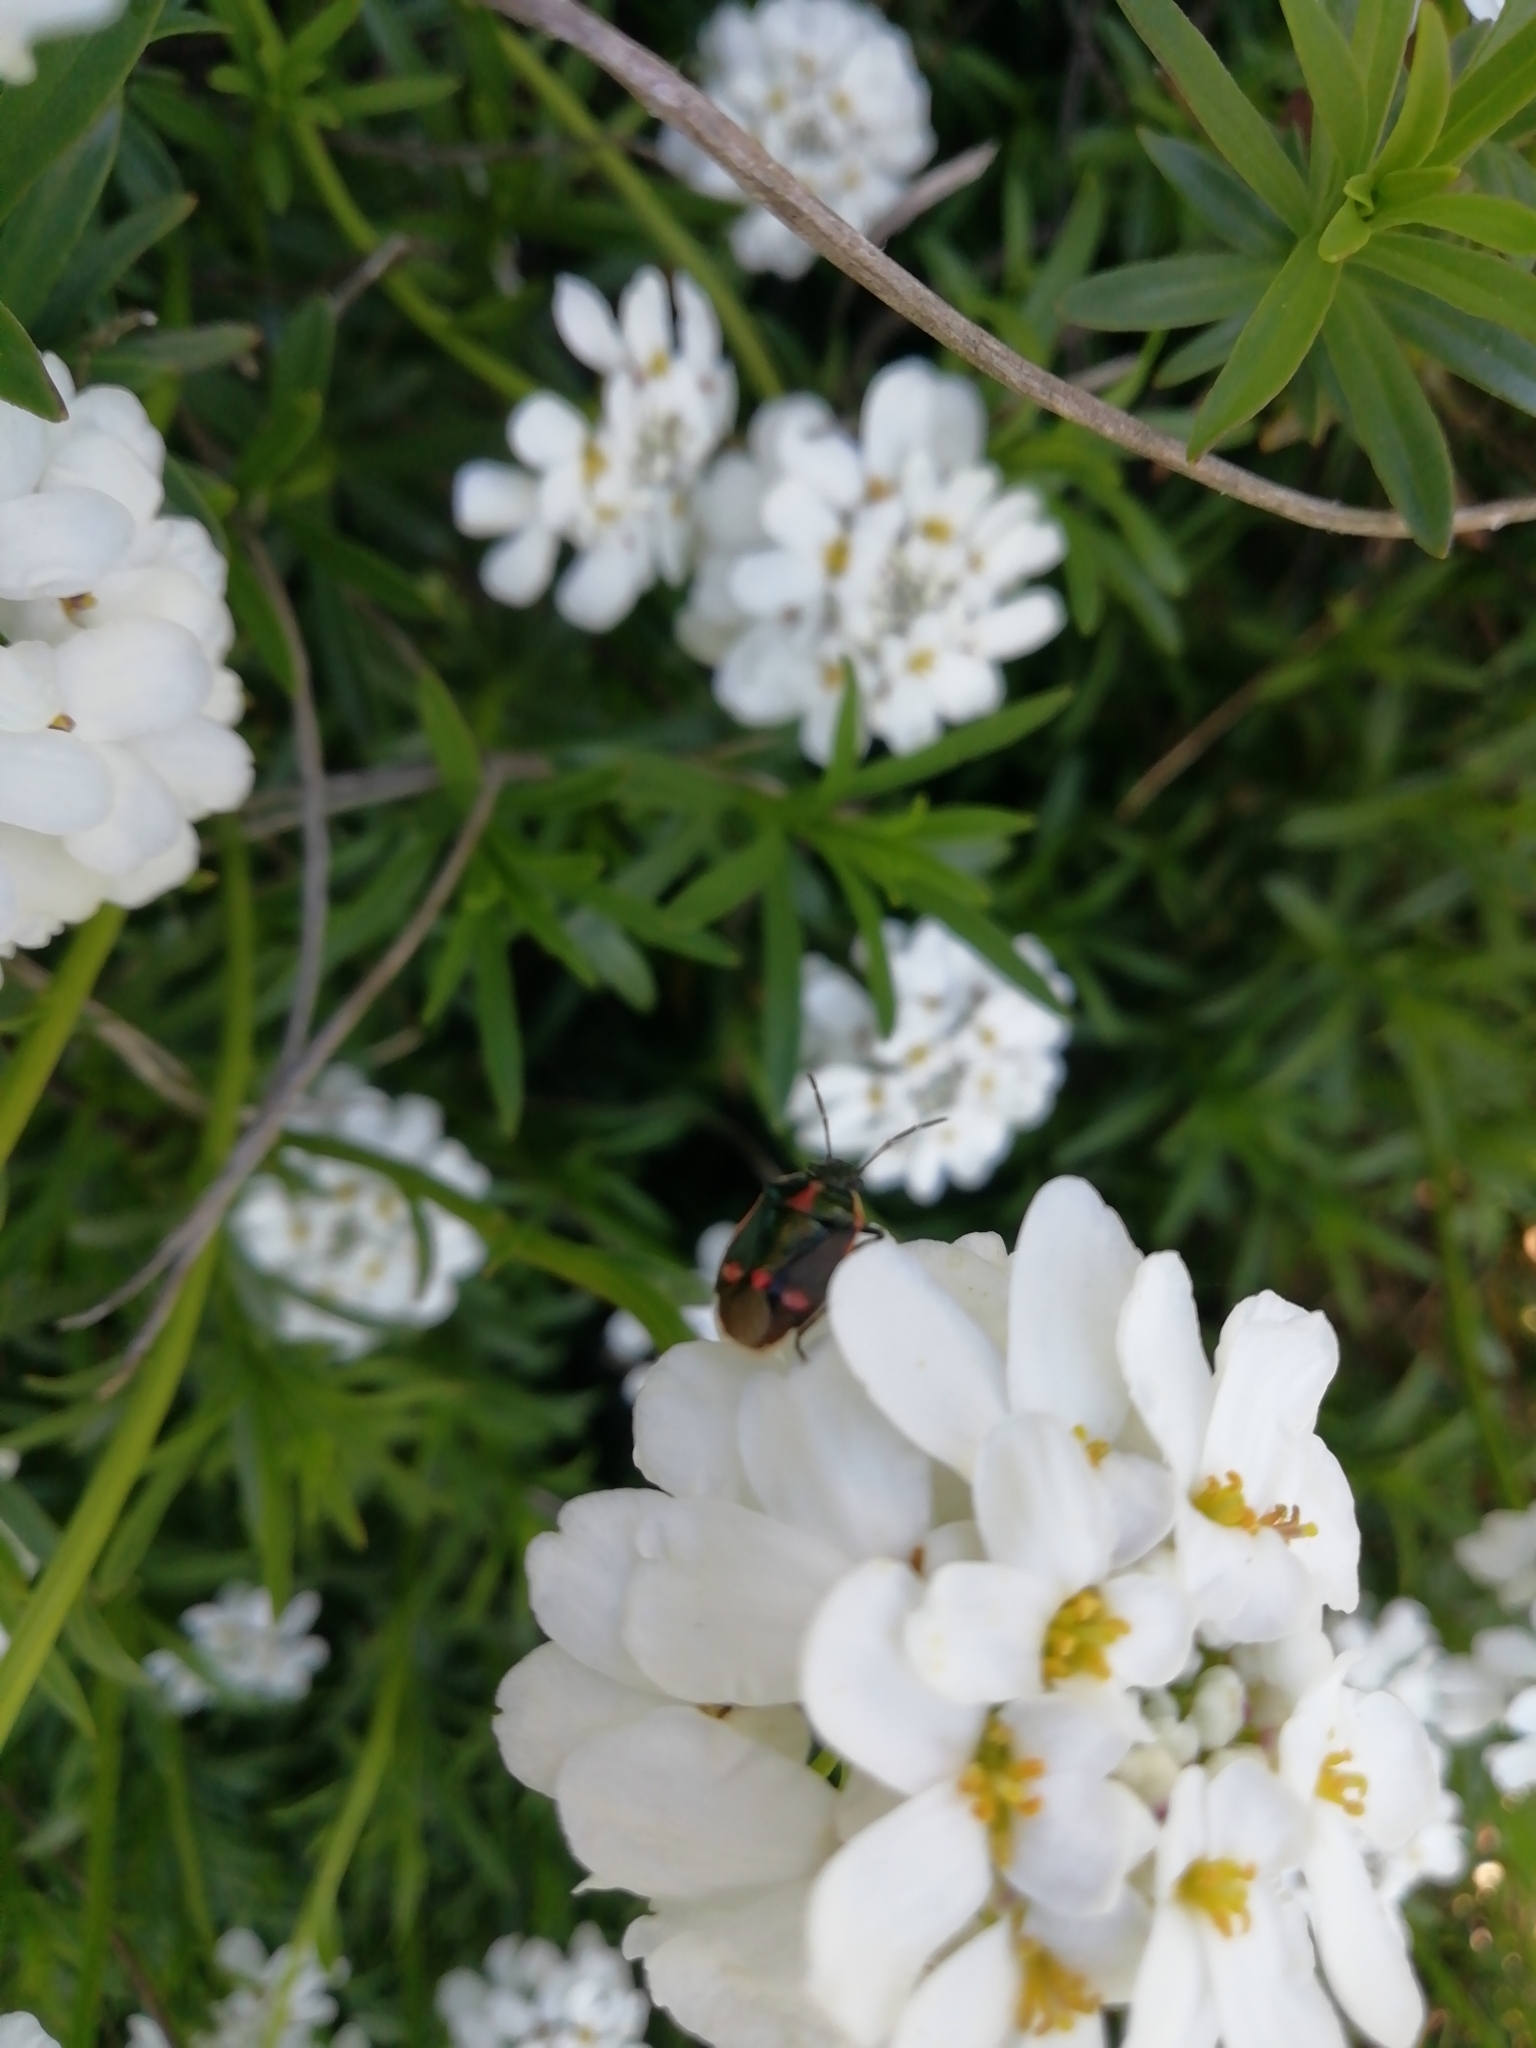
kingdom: Animalia
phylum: Arthropoda
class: Insecta
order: Hemiptera
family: Pentatomidae
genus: Eurydema
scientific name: Eurydema oleracea
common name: Cabbage bug
